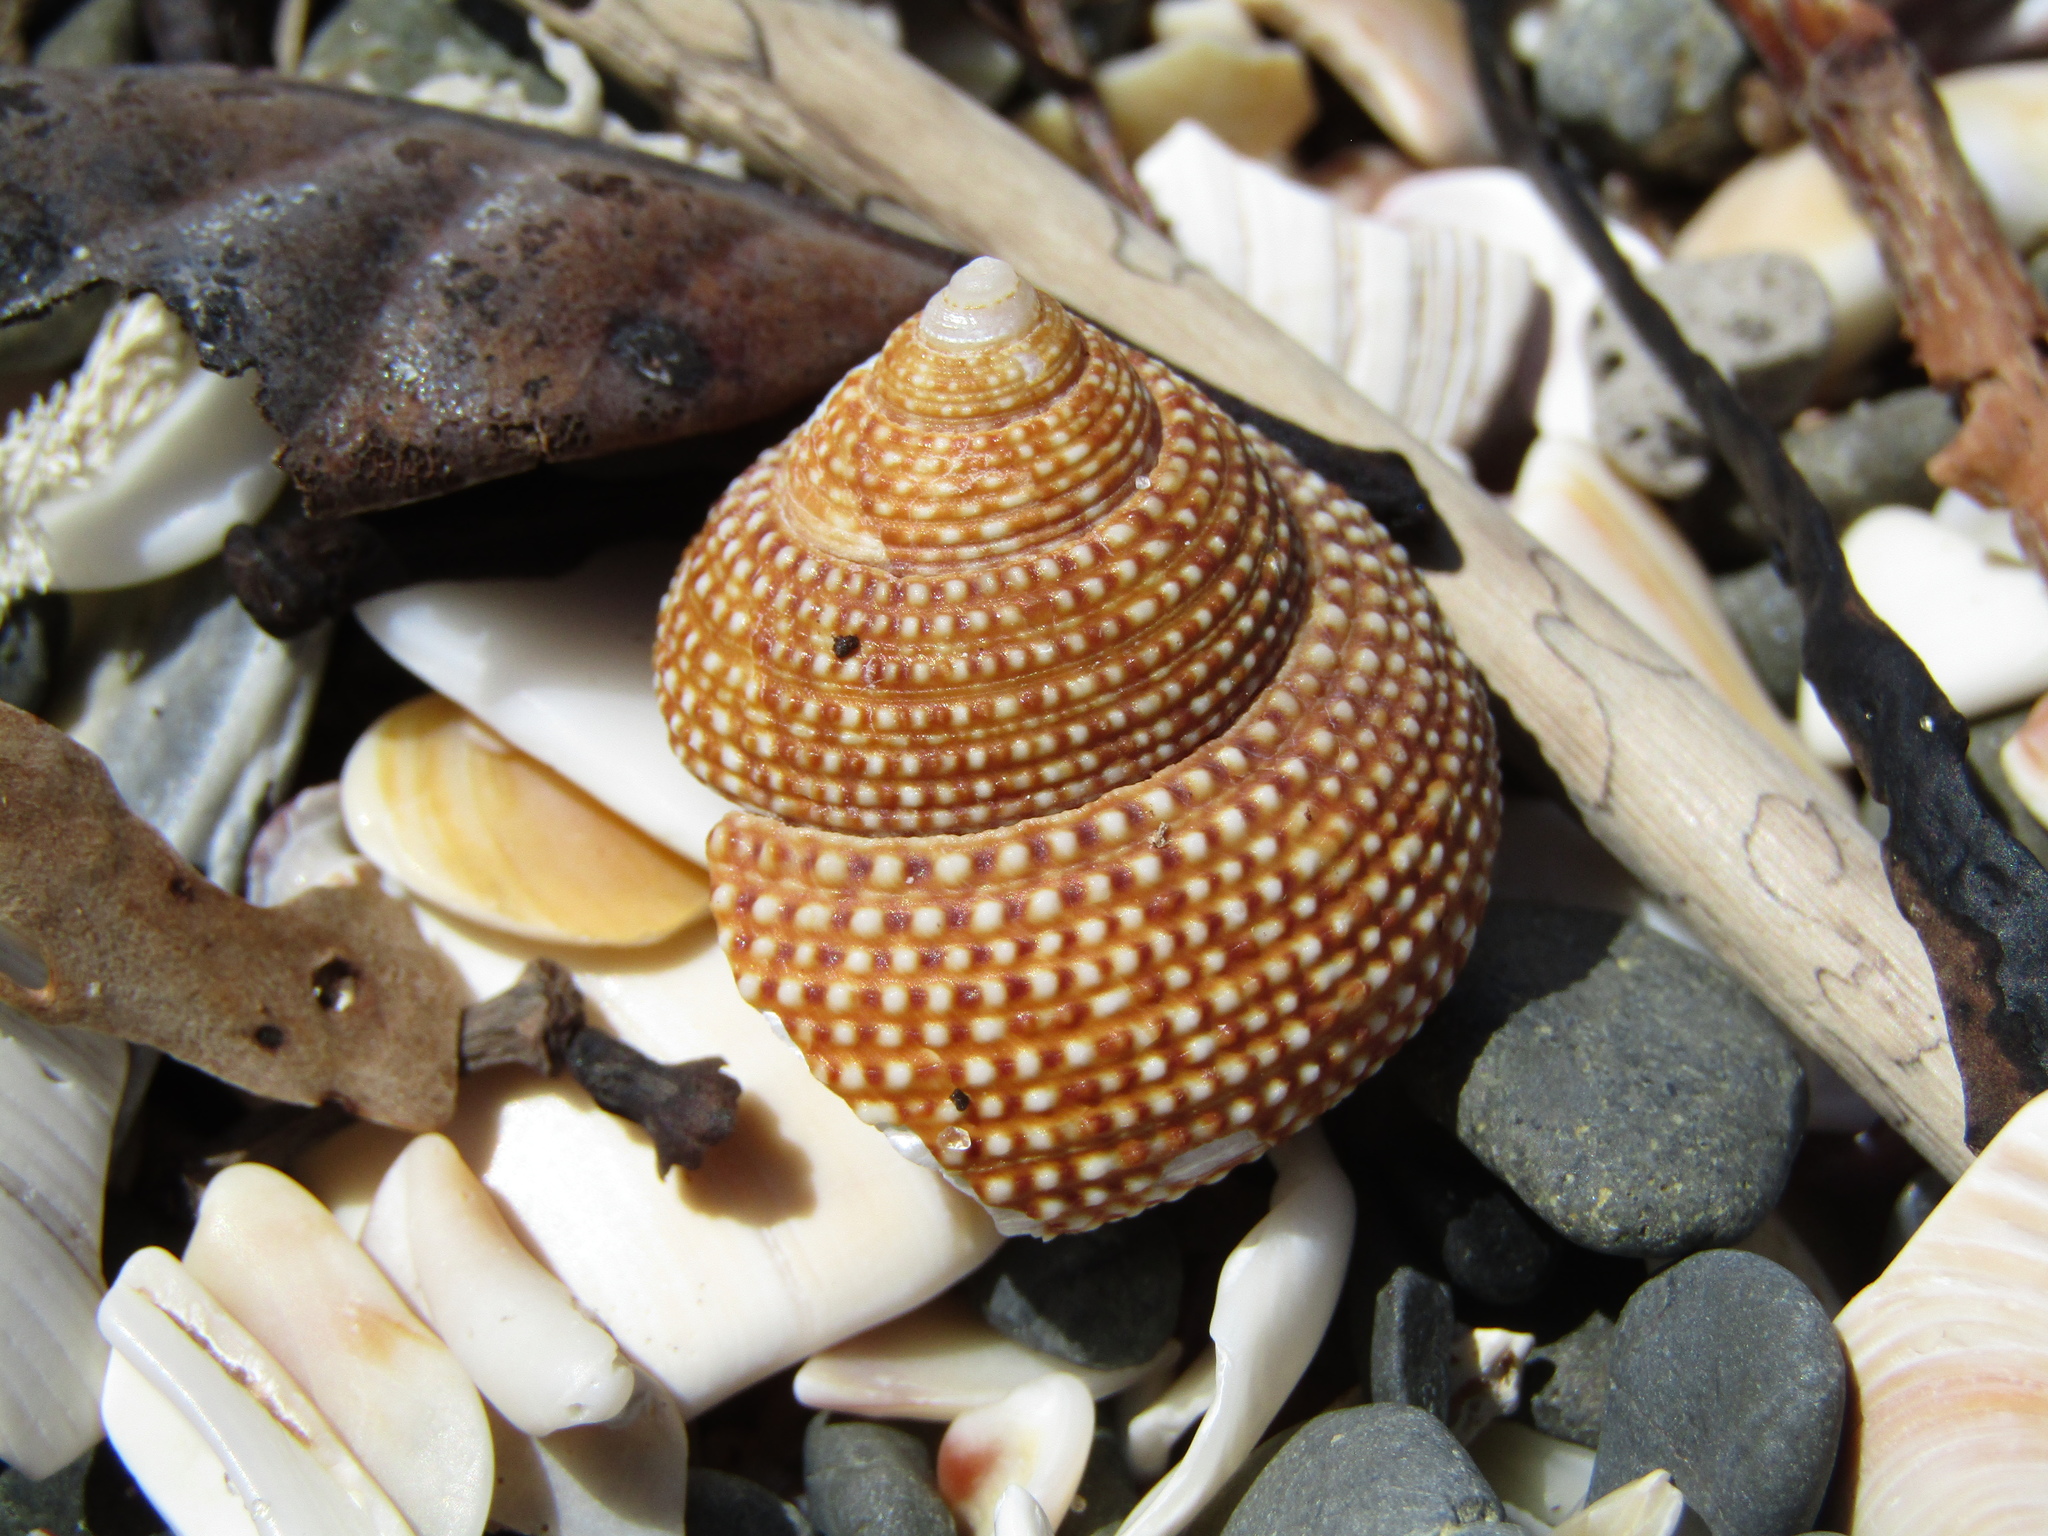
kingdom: Animalia
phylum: Mollusca
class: Gastropoda
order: Trochida
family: Calliostomatidae
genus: Maurea
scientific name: Maurea punctulata
